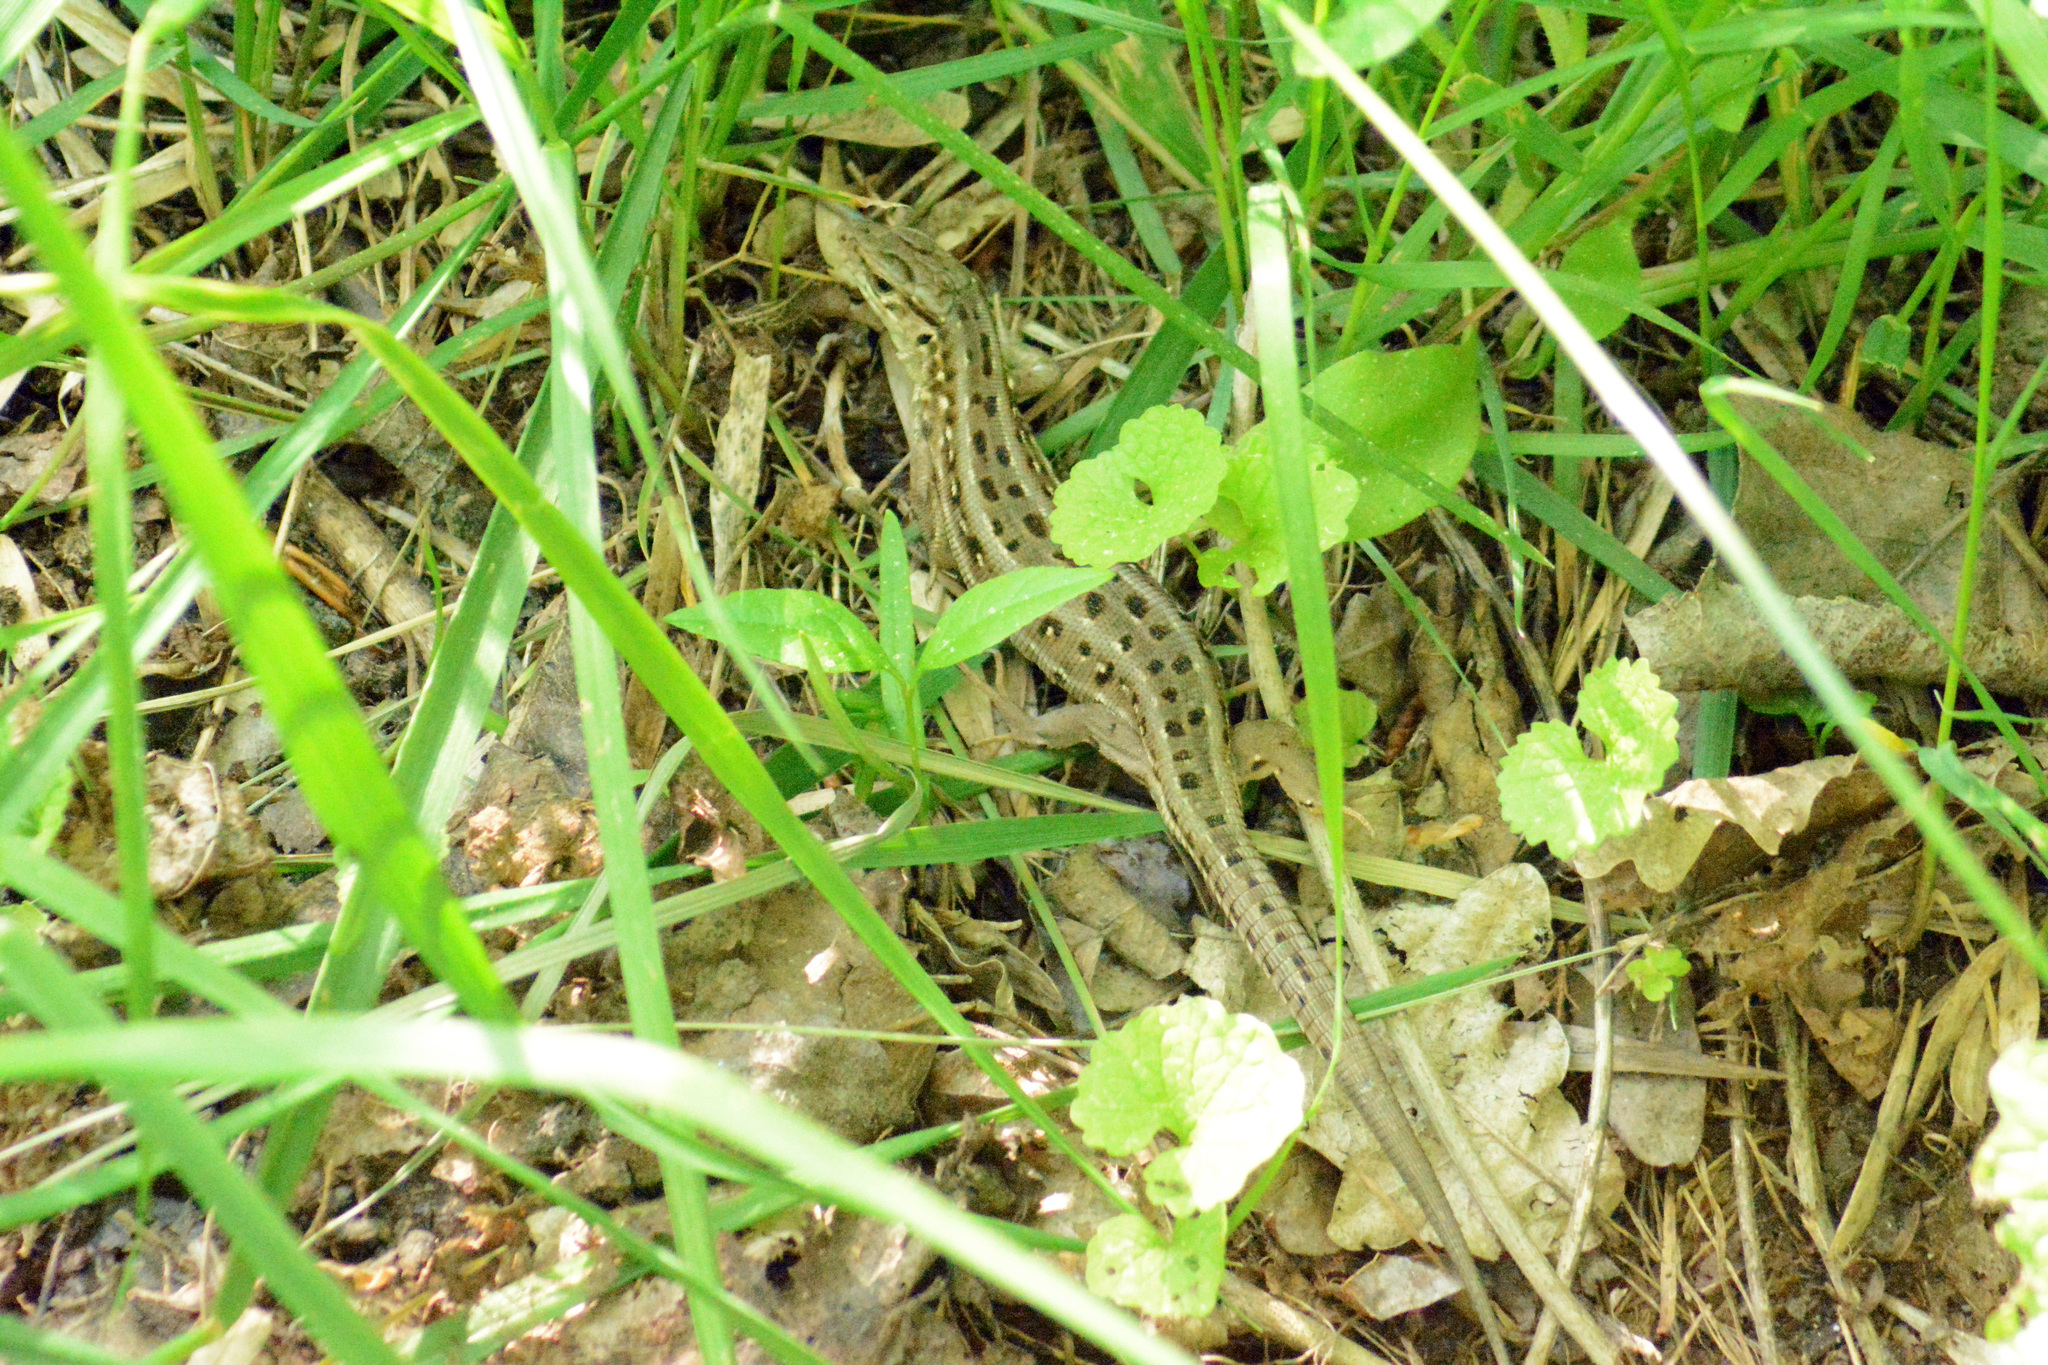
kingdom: Animalia
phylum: Chordata
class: Squamata
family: Lacertidae
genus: Lacerta
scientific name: Lacerta agilis
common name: Sand lizard
